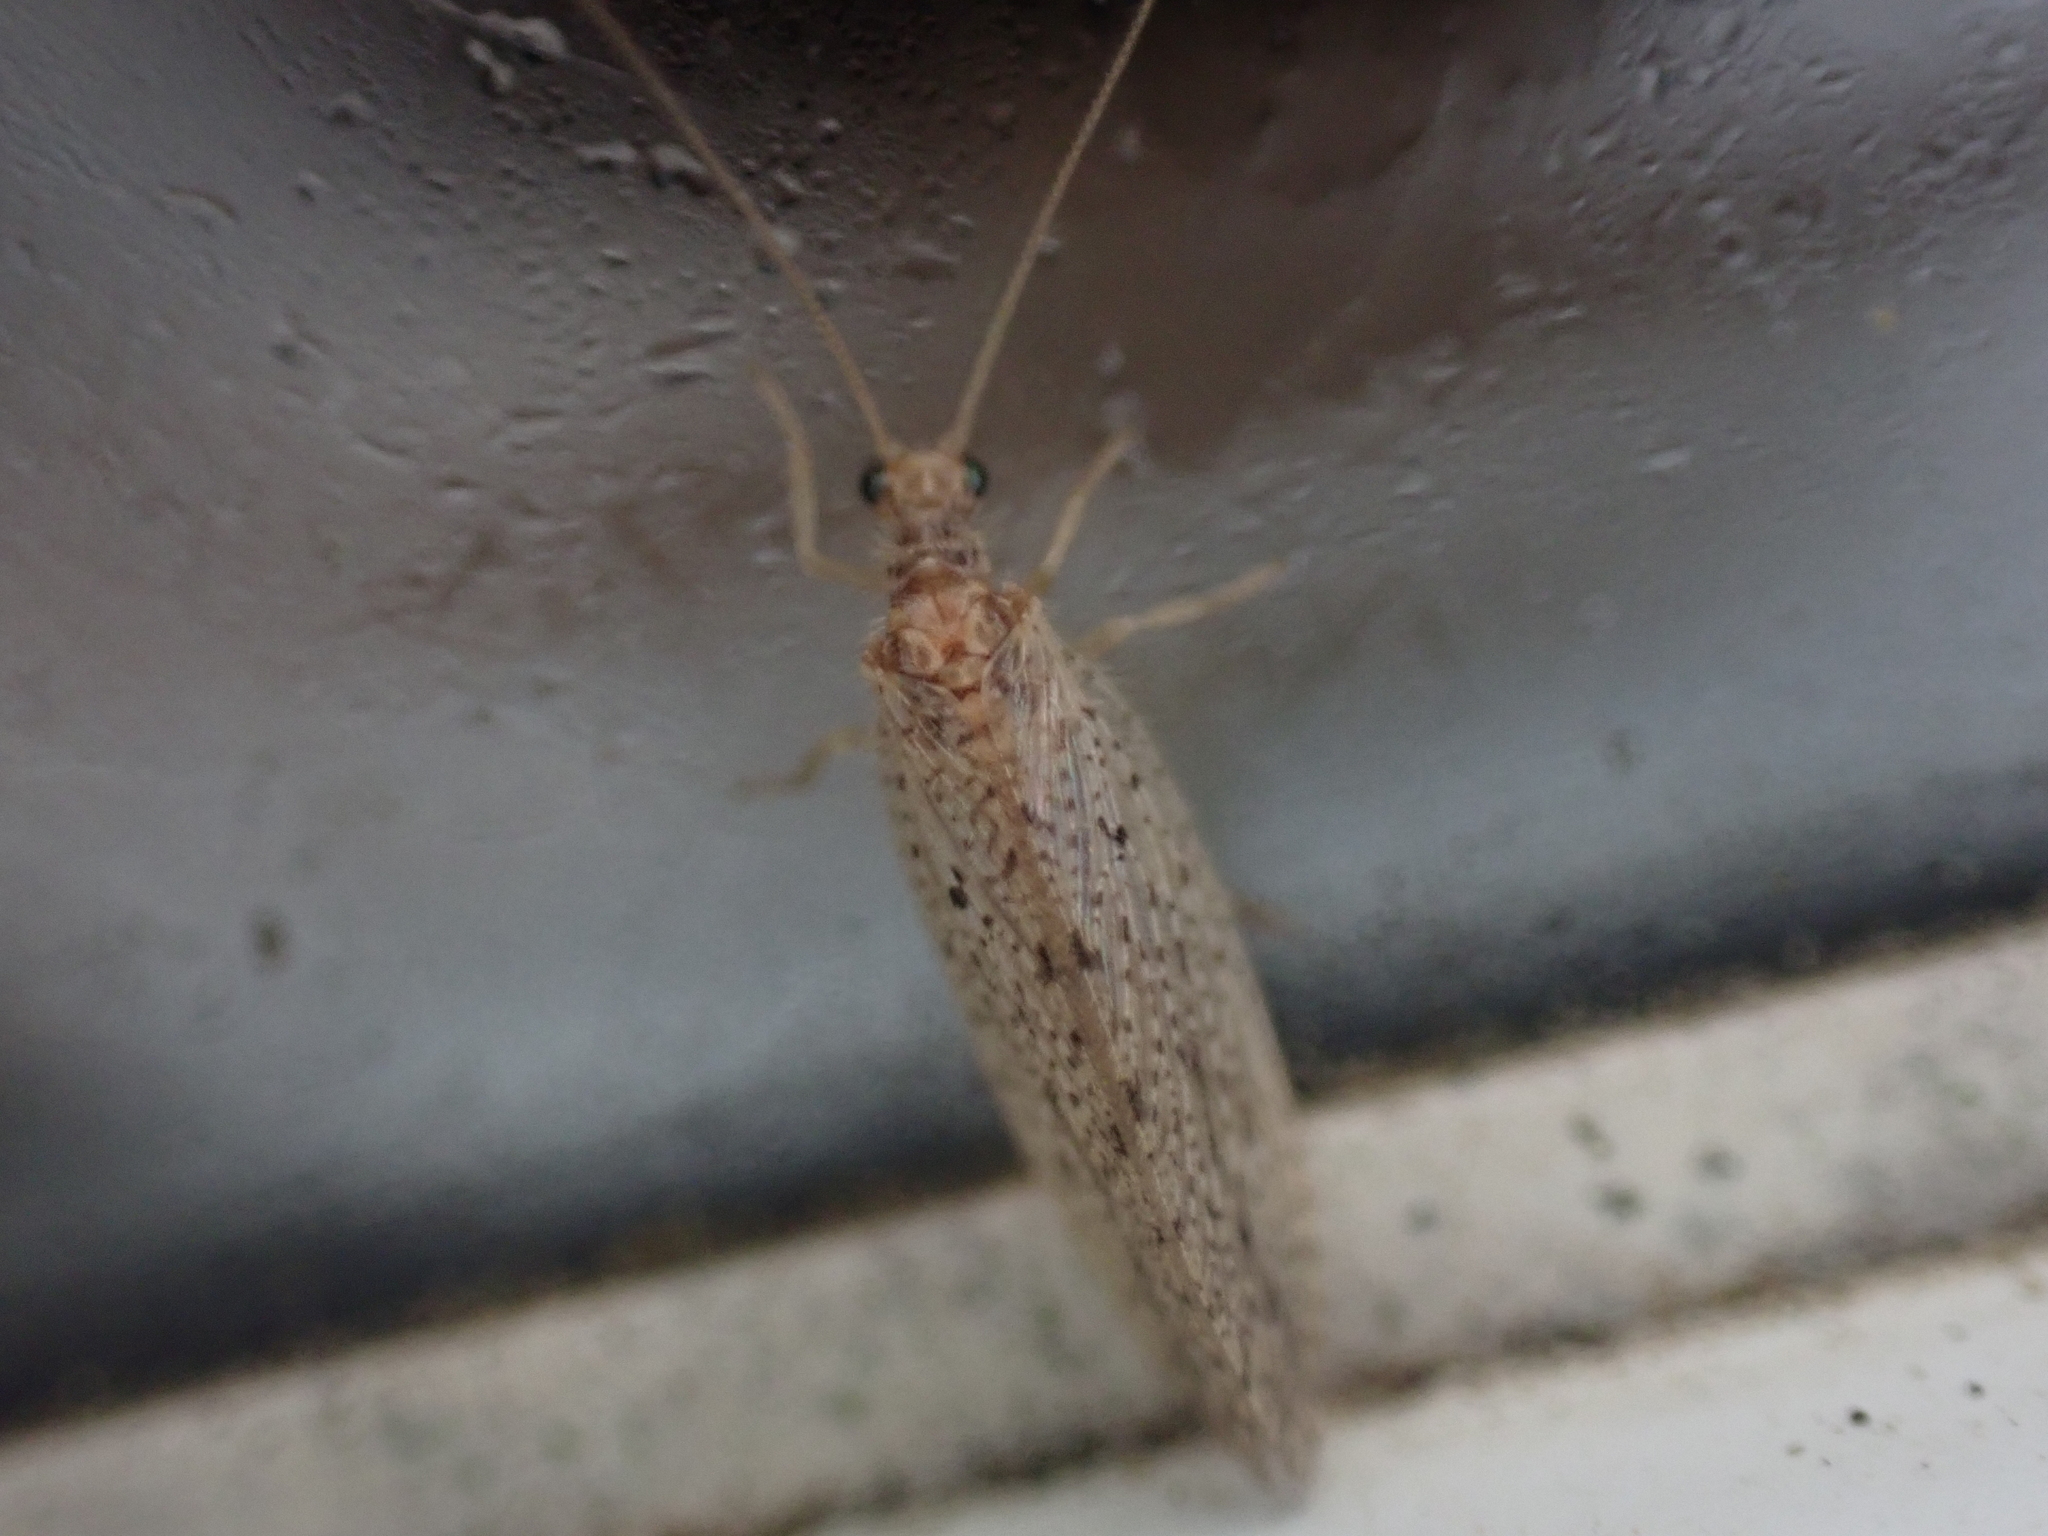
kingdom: Animalia
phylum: Arthropoda
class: Insecta
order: Neuroptera
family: Hemerobiidae
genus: Micromus
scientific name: Micromus subanticus
